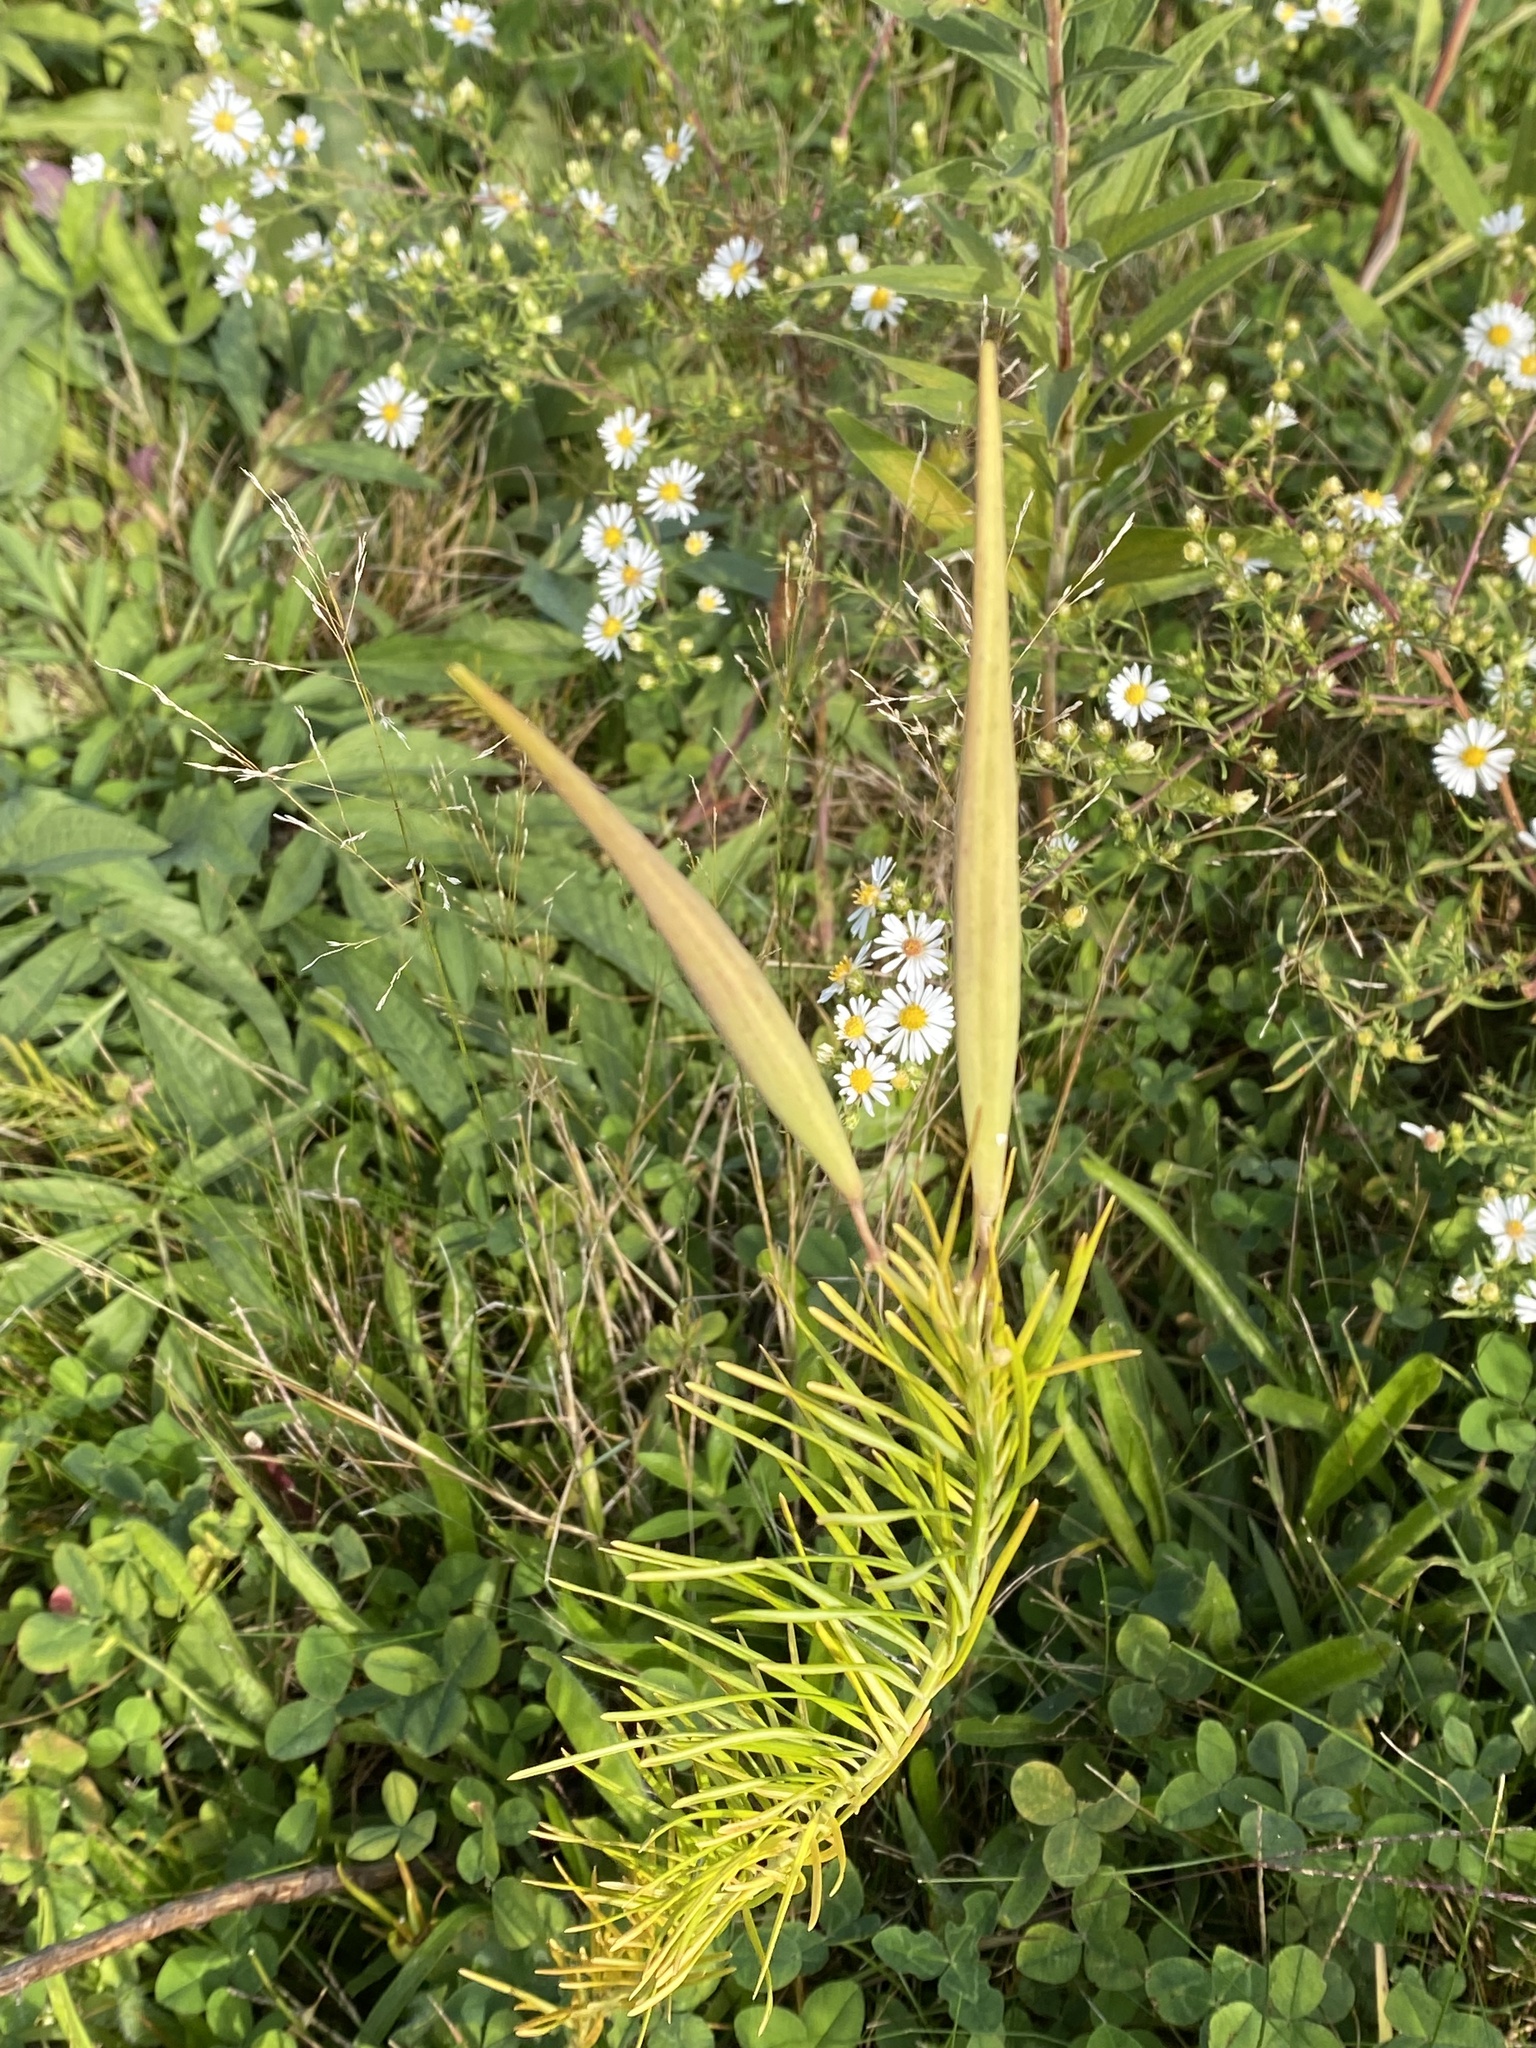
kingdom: Plantae
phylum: Tracheophyta
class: Magnoliopsida
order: Gentianales
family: Apocynaceae
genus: Asclepias
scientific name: Asclepias verticillata
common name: Eastern whorled milkweed
